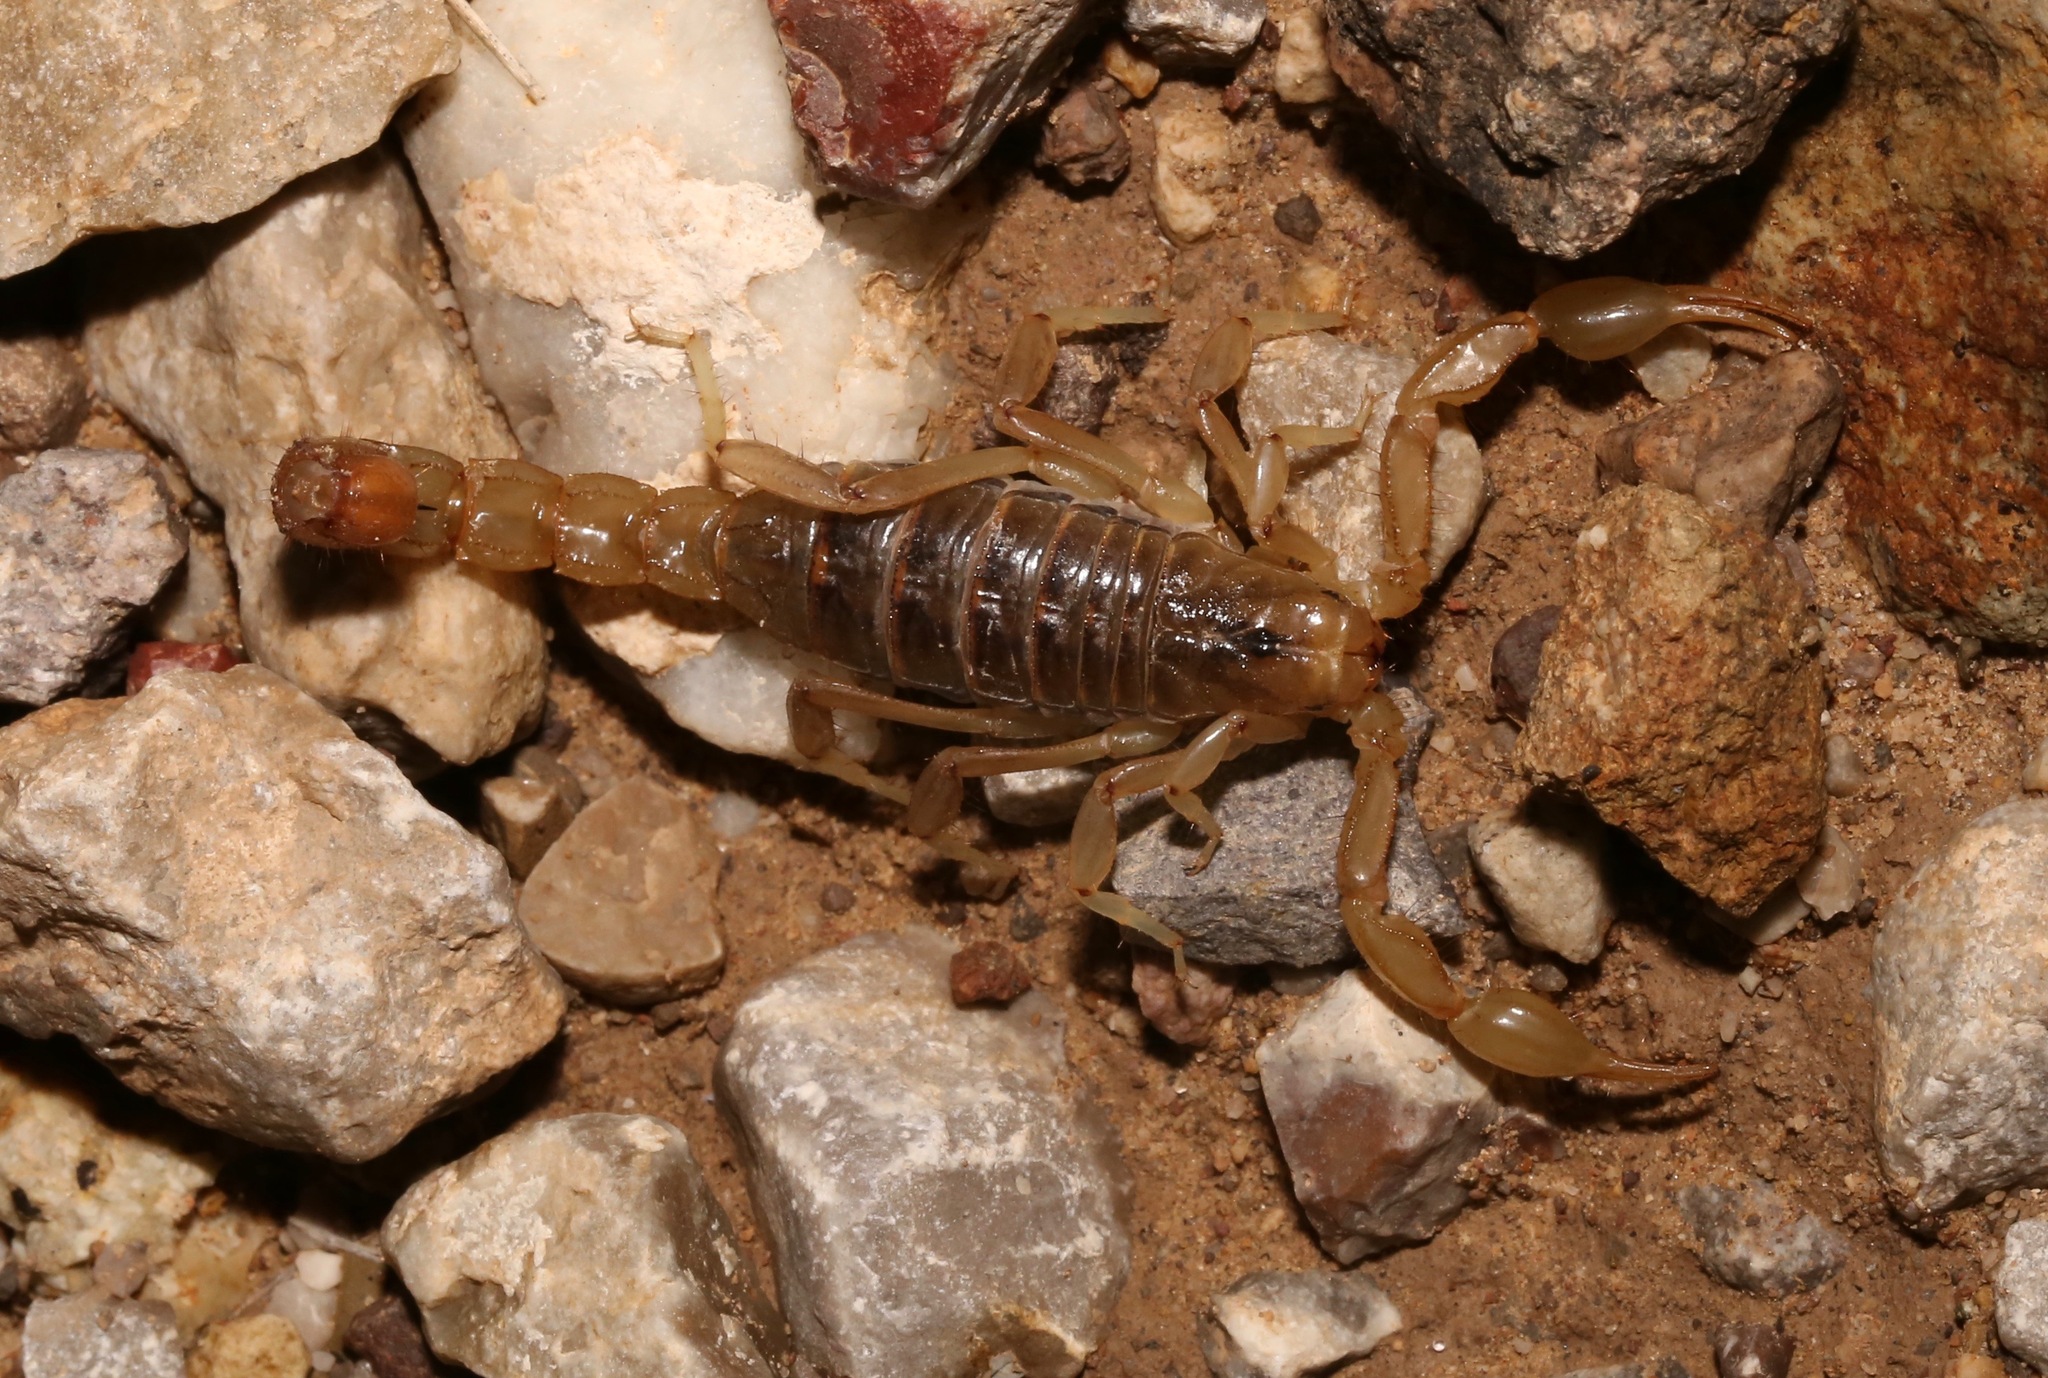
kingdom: Animalia
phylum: Arthropoda
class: Arachnida
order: Scorpiones
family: Vaejovidae
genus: Paravaejovis
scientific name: Paravaejovis spinigerus
